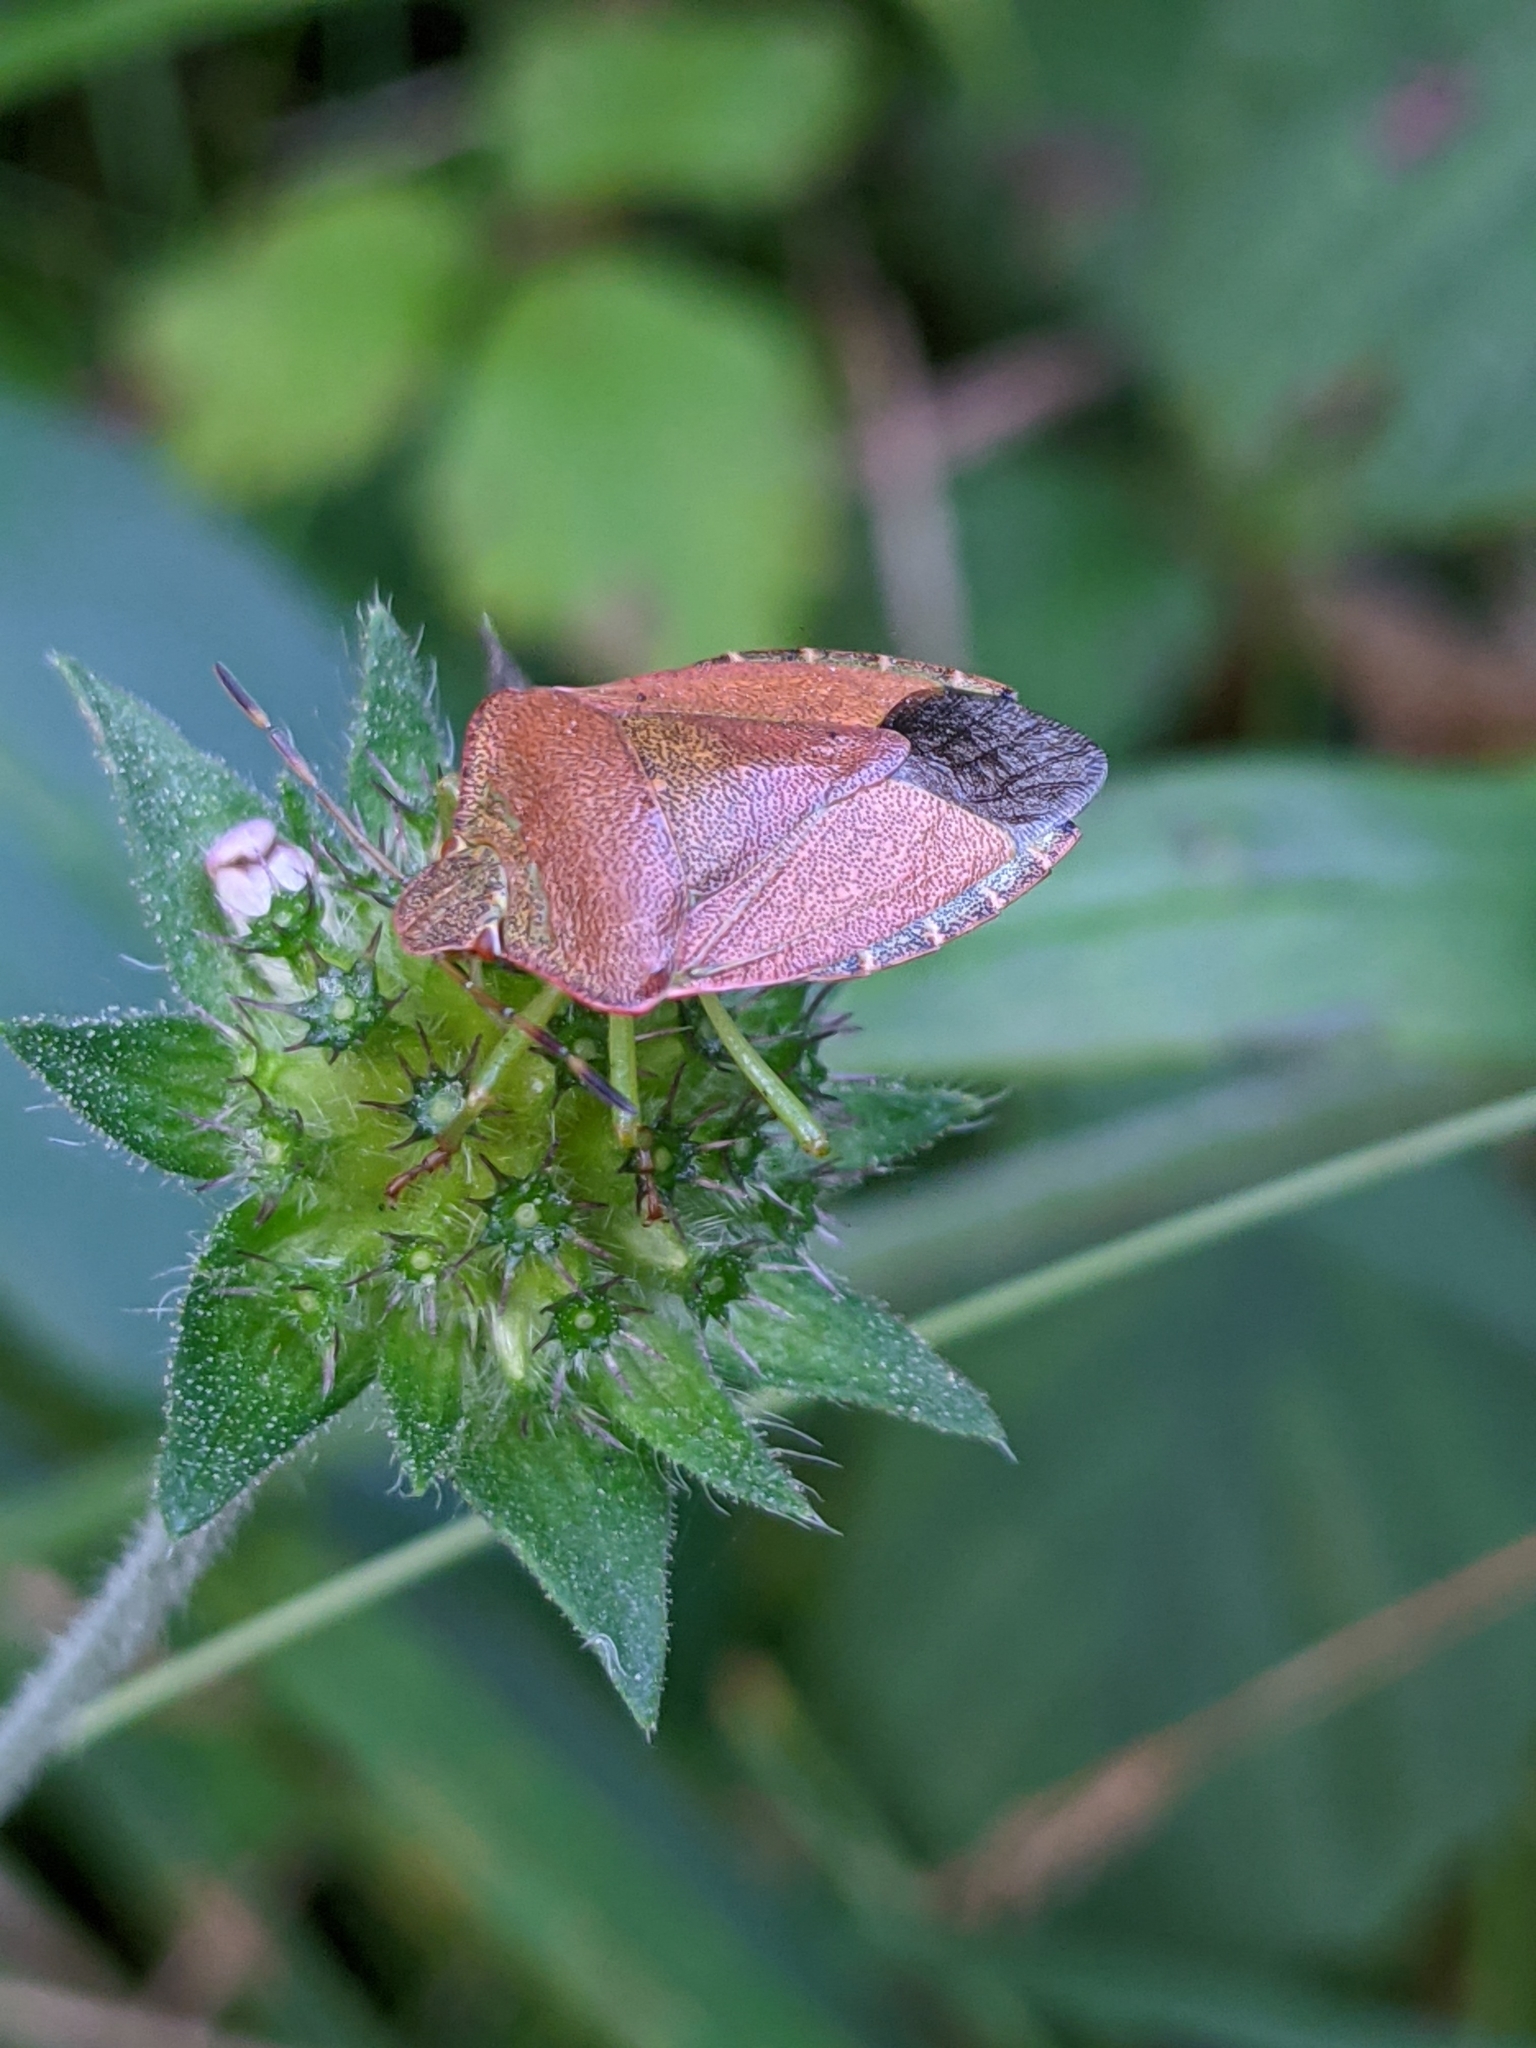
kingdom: Animalia
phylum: Arthropoda
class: Insecta
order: Hemiptera
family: Pentatomidae
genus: Palomena
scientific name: Palomena prasina
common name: Green shieldbug
